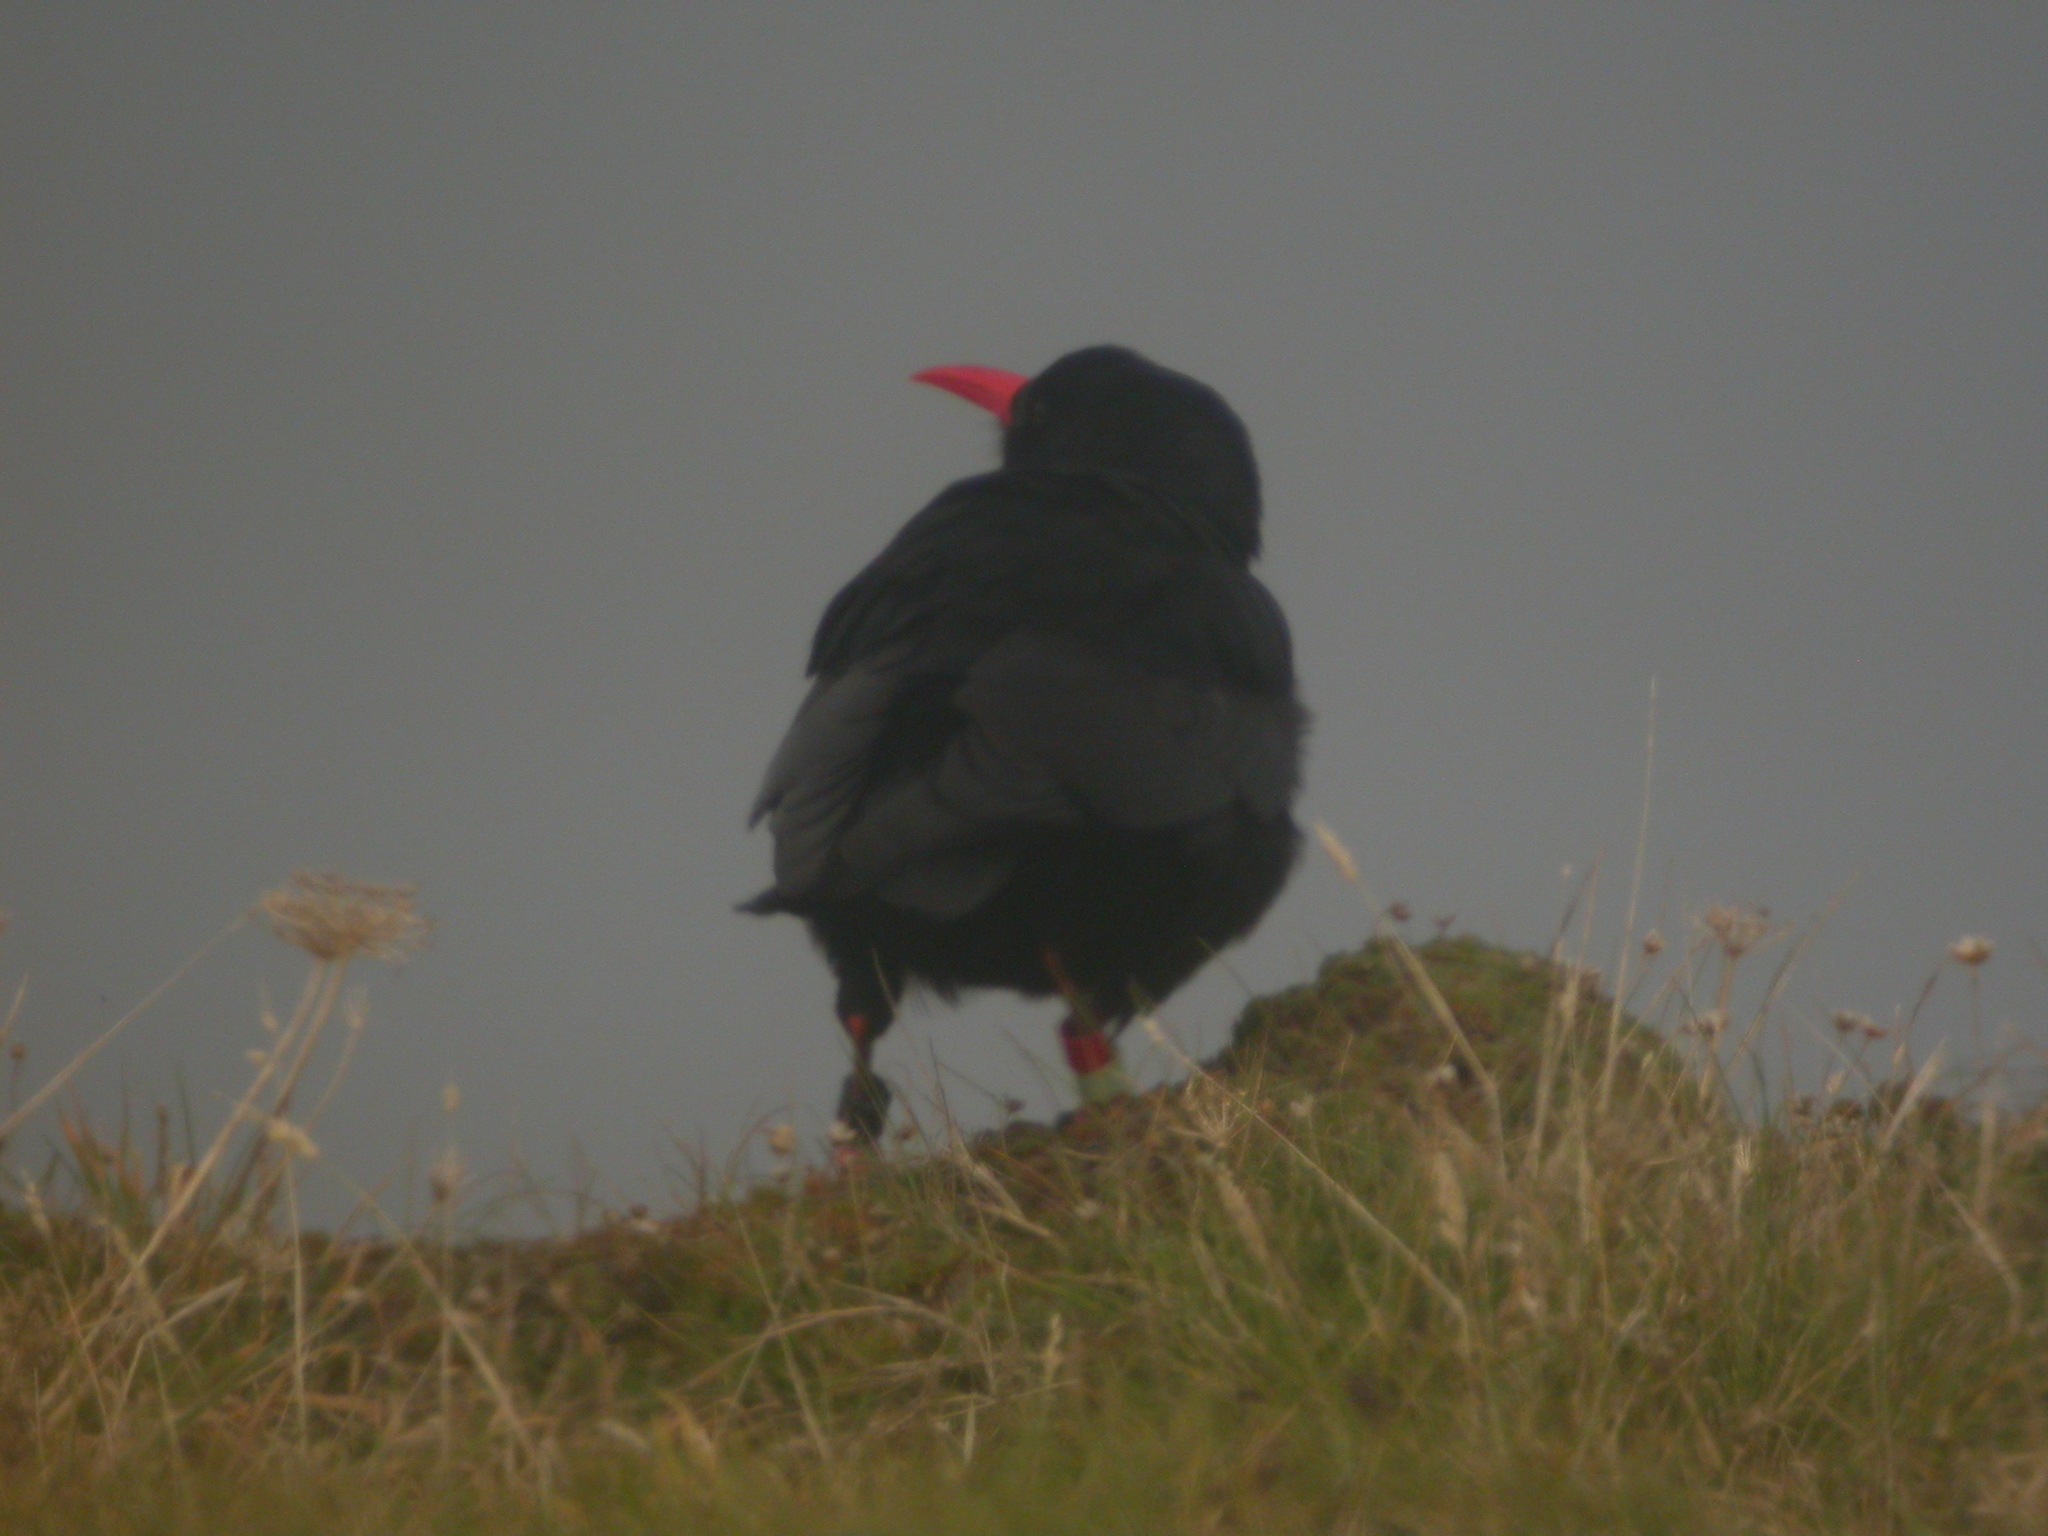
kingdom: Animalia
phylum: Chordata
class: Aves
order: Passeriformes
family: Corvidae
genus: Pyrrhocorax
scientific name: Pyrrhocorax pyrrhocorax
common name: Red-billed chough
